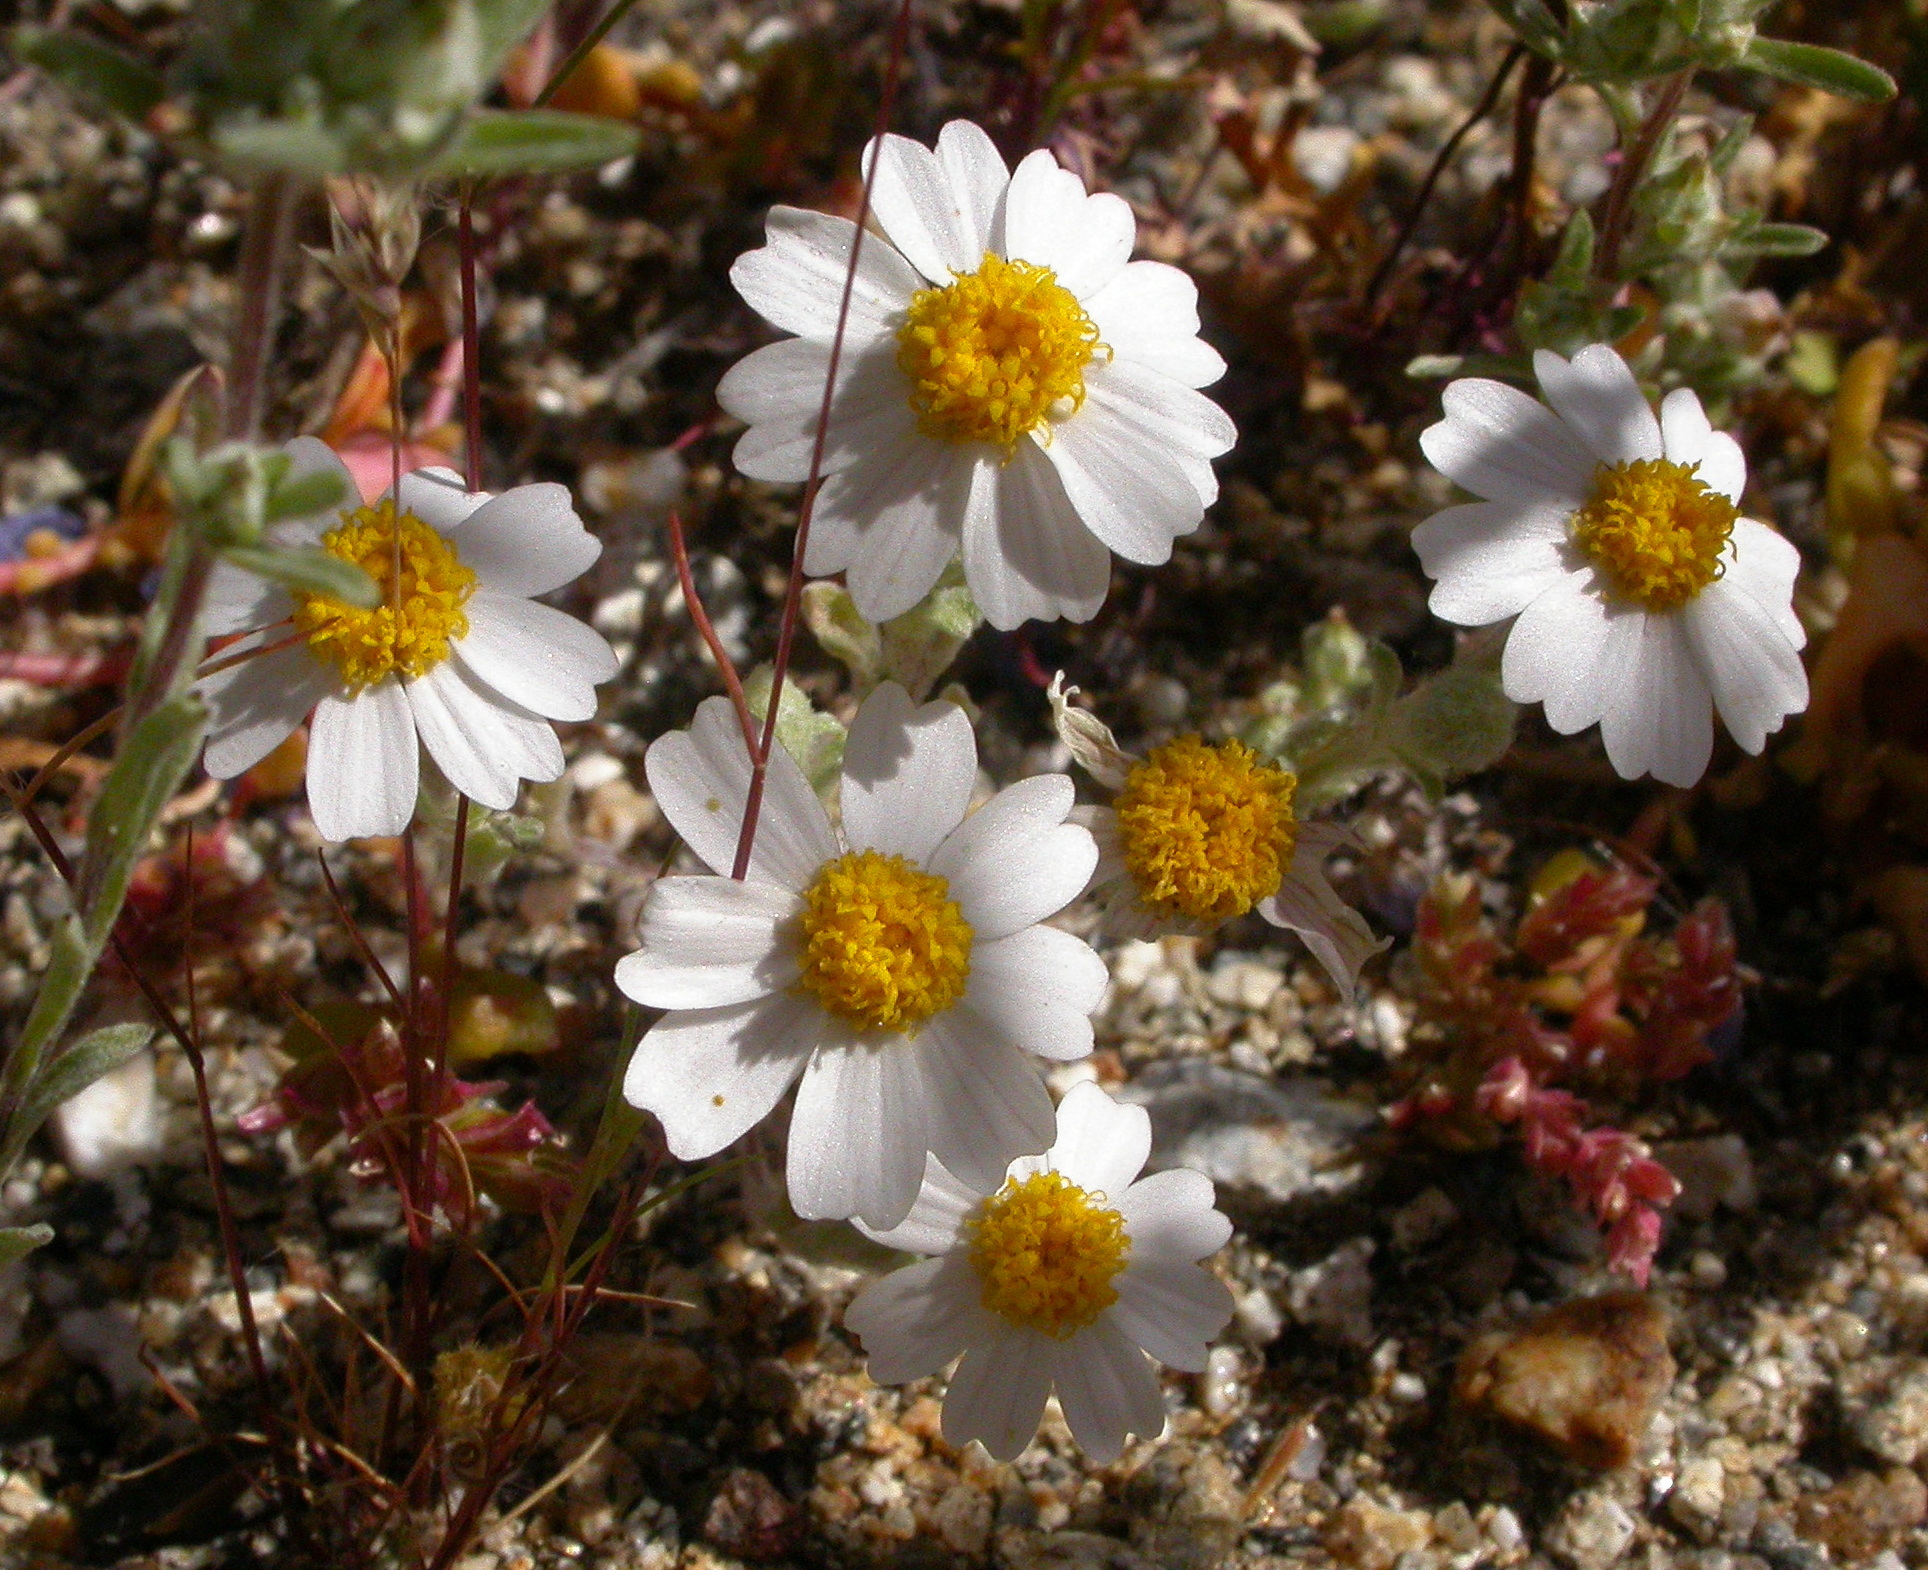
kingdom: Plantae
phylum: Tracheophyta
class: Magnoliopsida
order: Asterales
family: Asteraceae
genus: Eriophyllum
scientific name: Eriophyllum wallacei
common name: Wallace's woolly daisy
